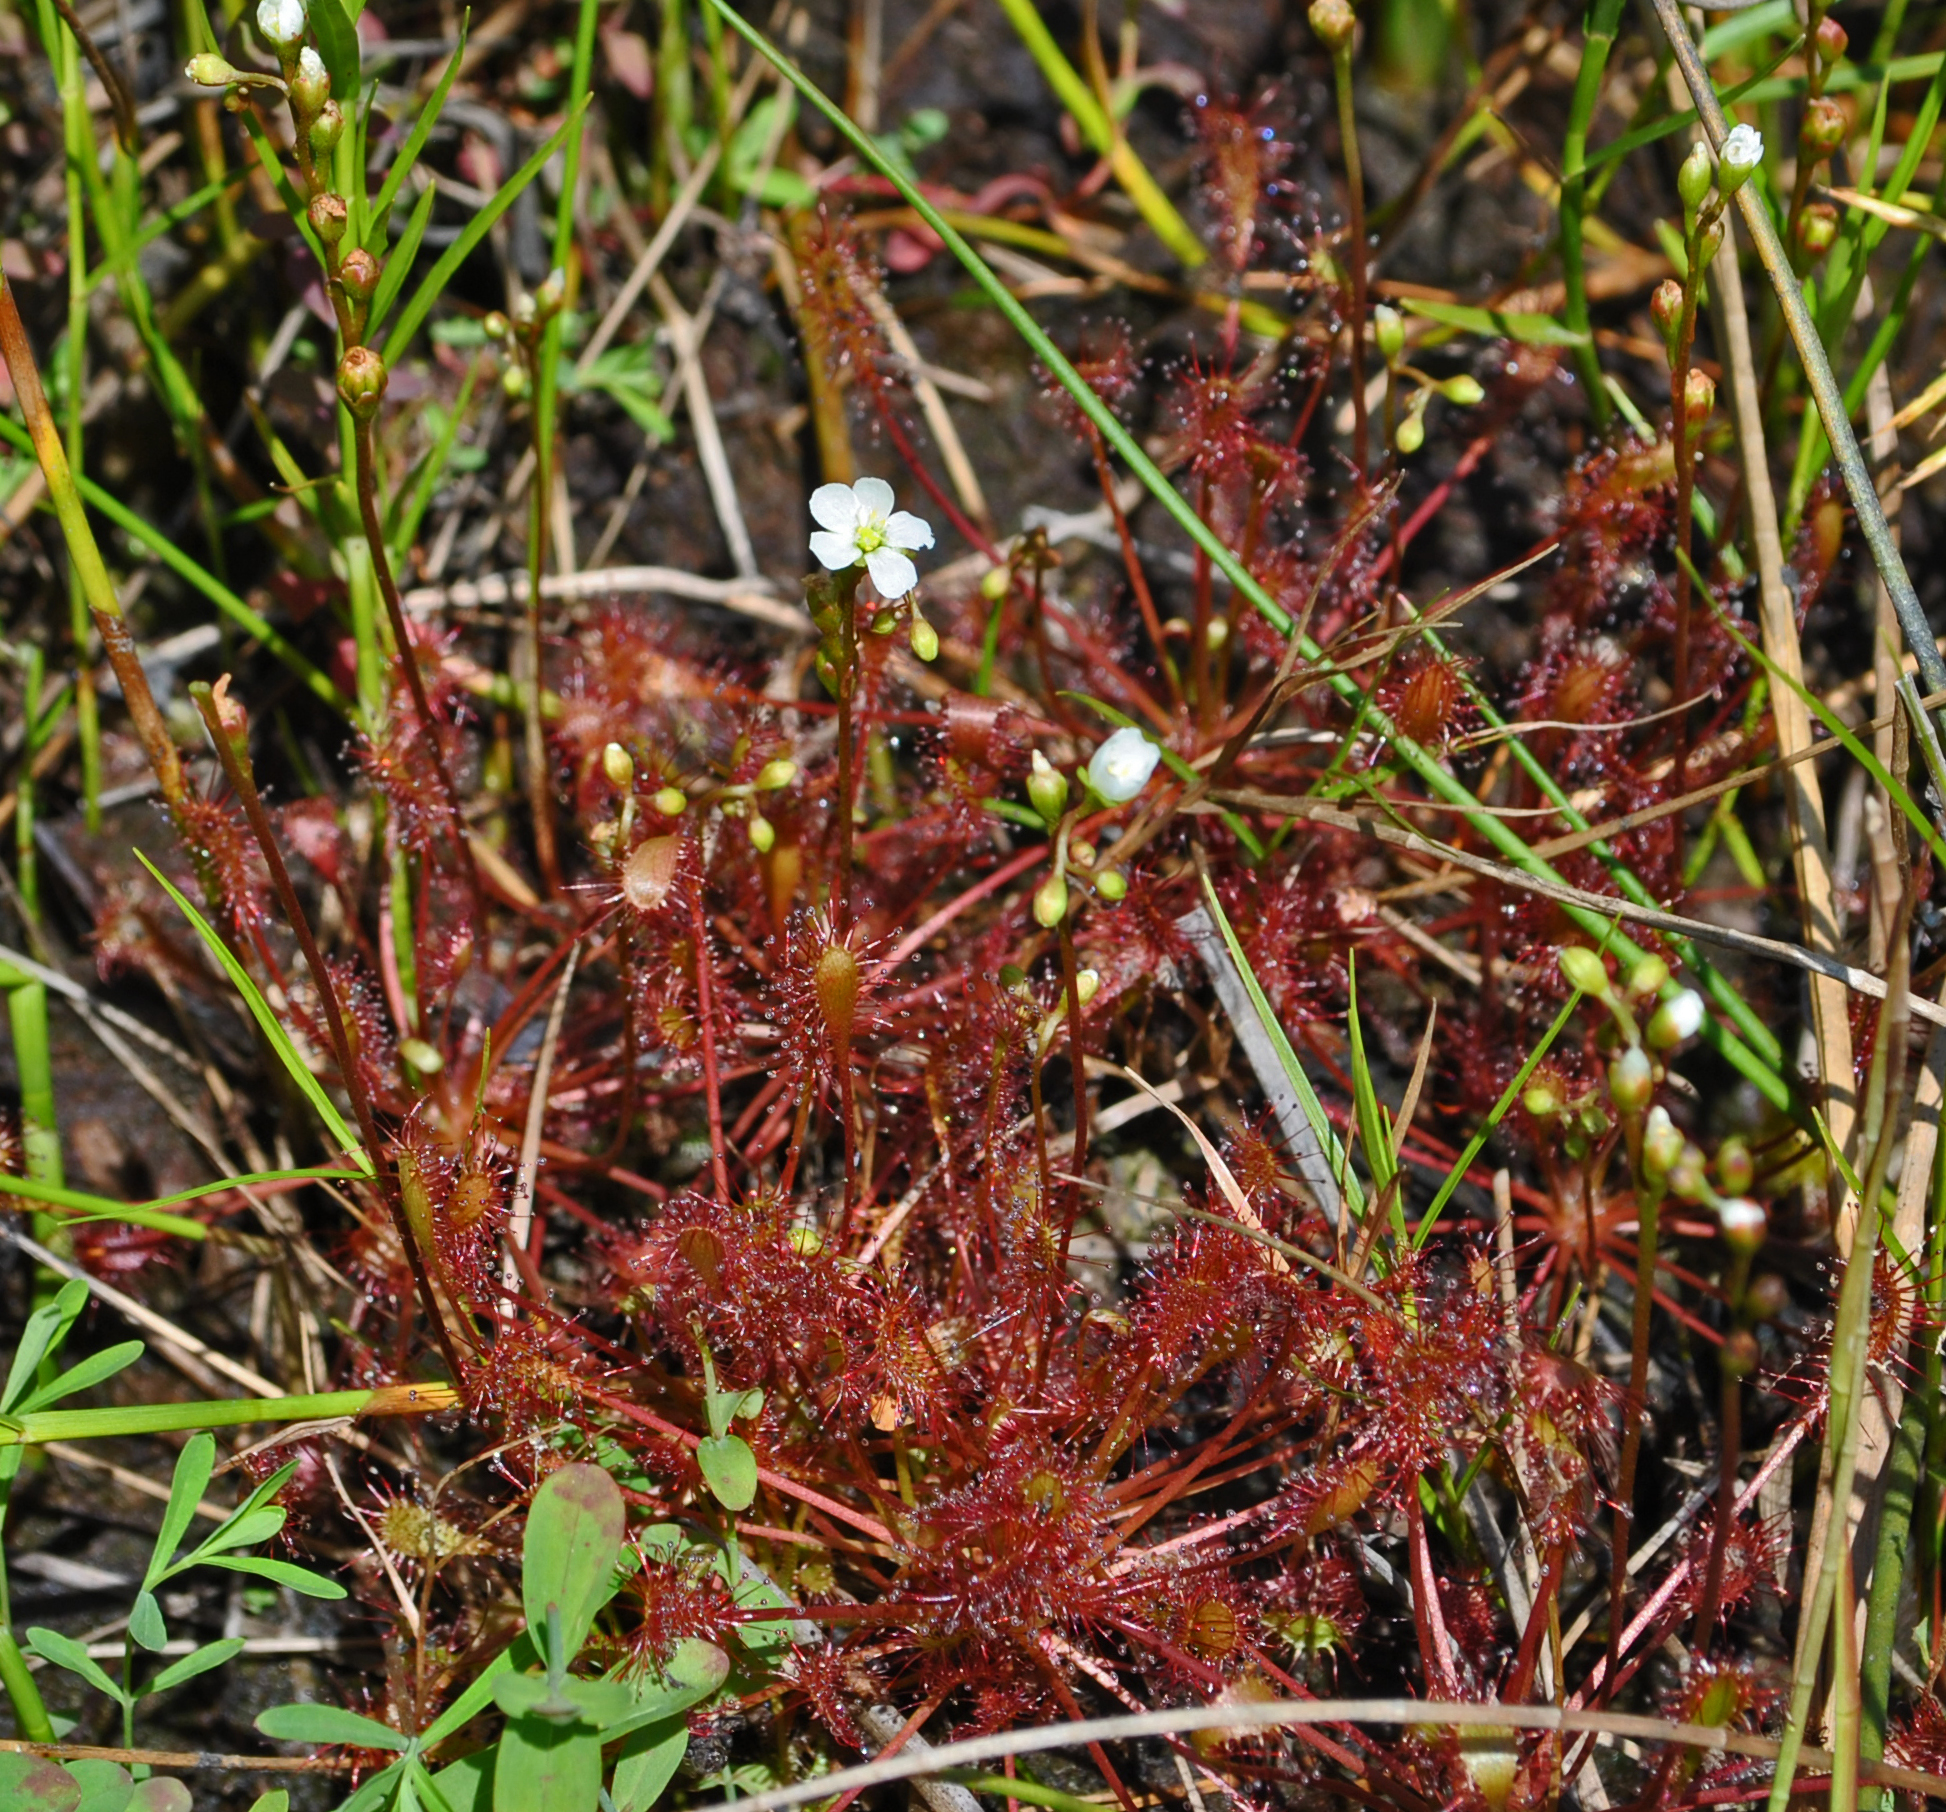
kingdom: Plantae
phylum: Tracheophyta
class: Magnoliopsida
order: Caryophyllales
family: Droseraceae
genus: Drosera
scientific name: Drosera intermedia
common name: Oblong-leaved sundew
